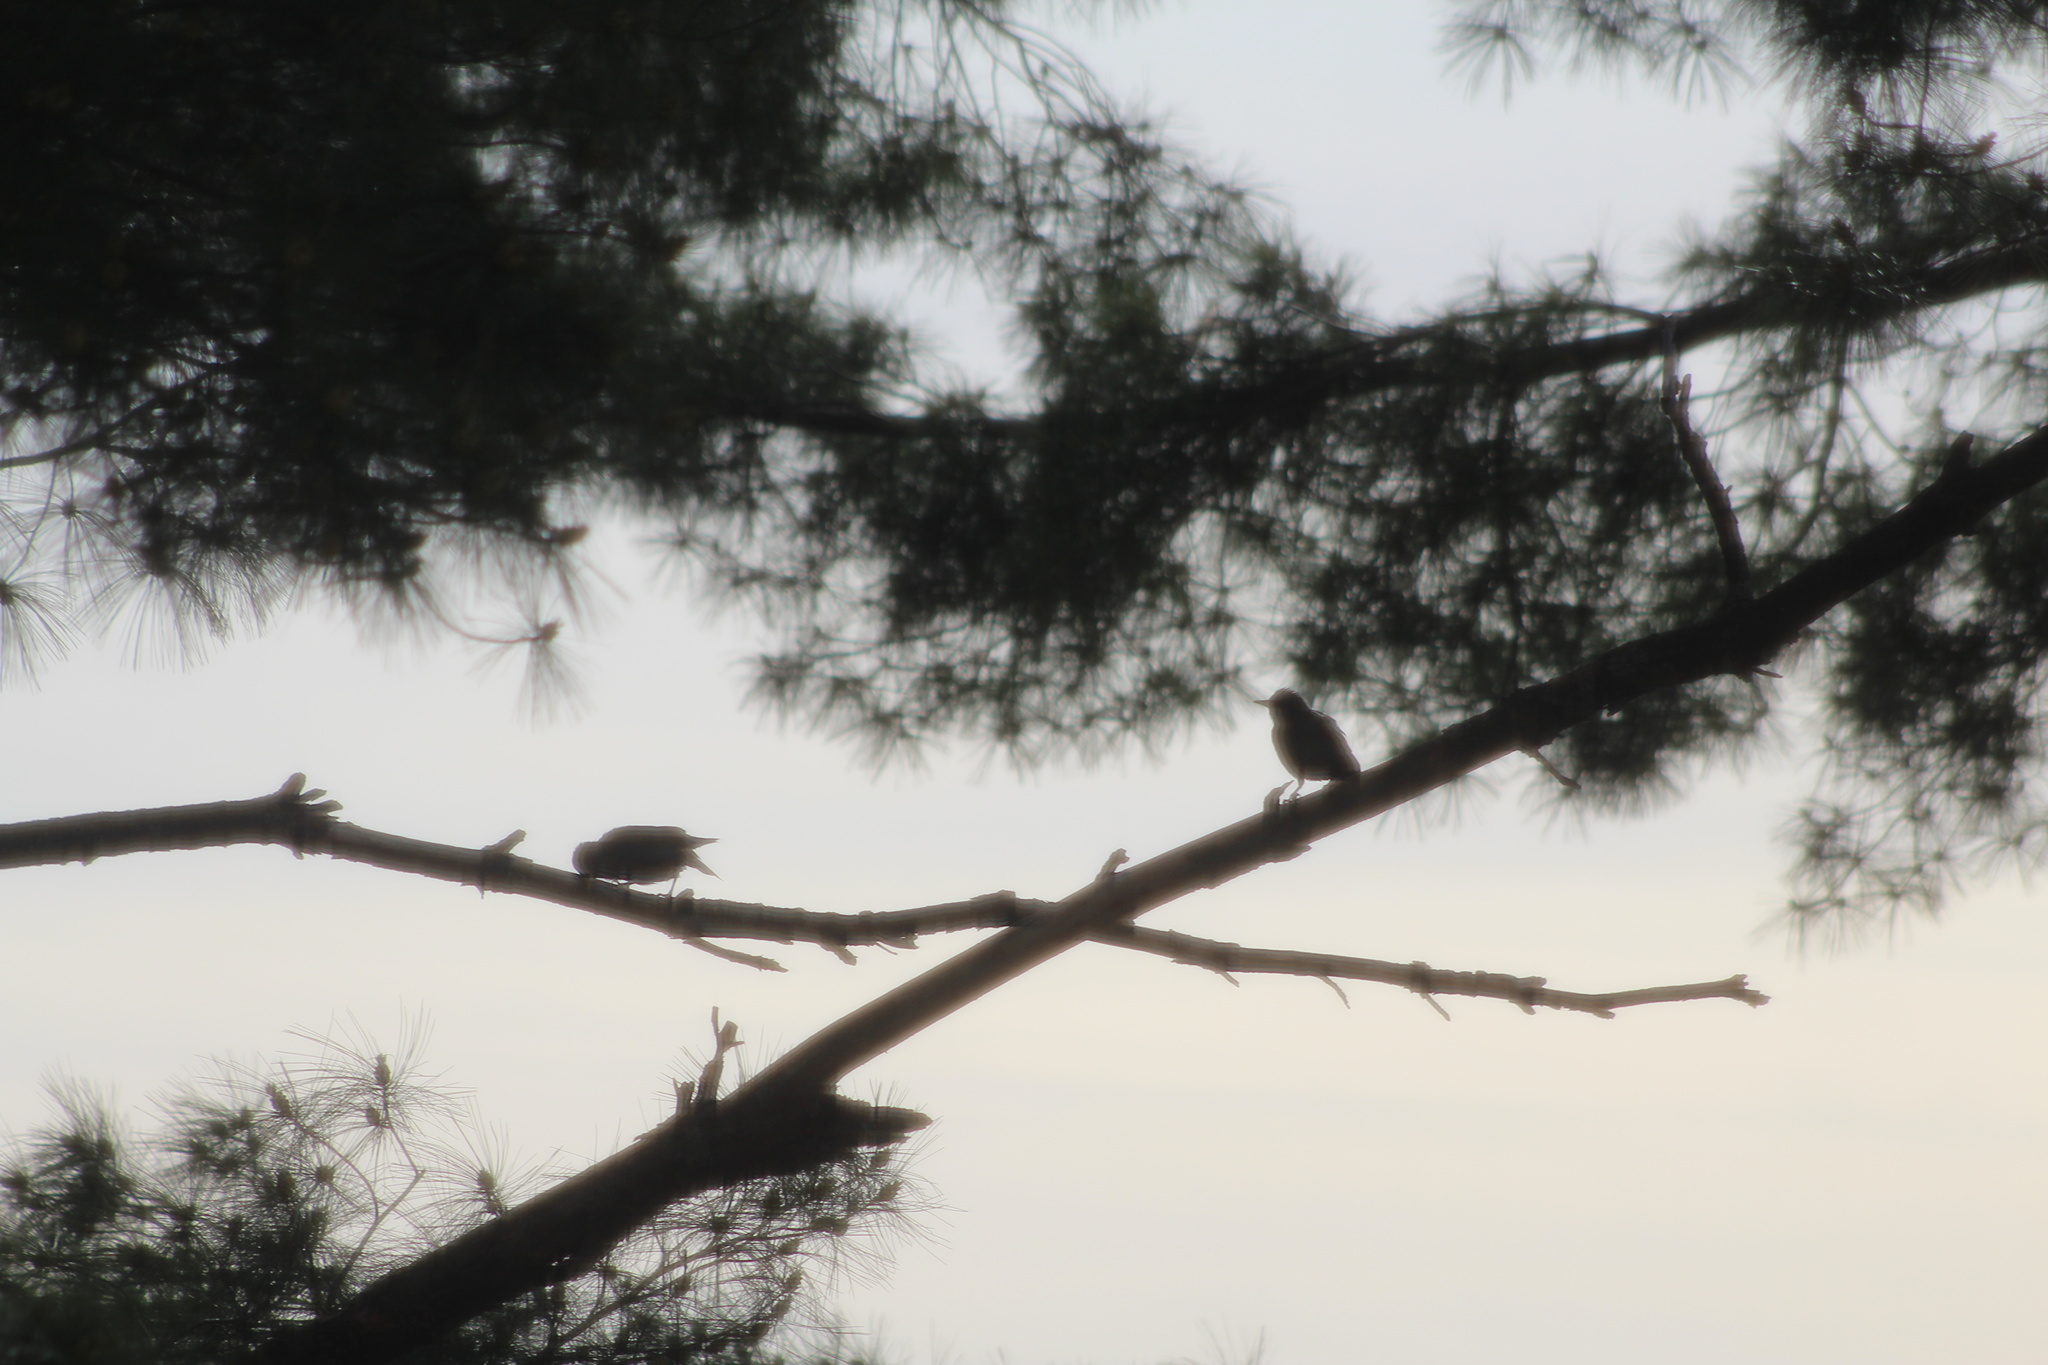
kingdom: Animalia
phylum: Chordata
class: Aves
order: Passeriformes
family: Sturnidae
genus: Sturnus
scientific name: Sturnus vulgaris
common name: Common starling
